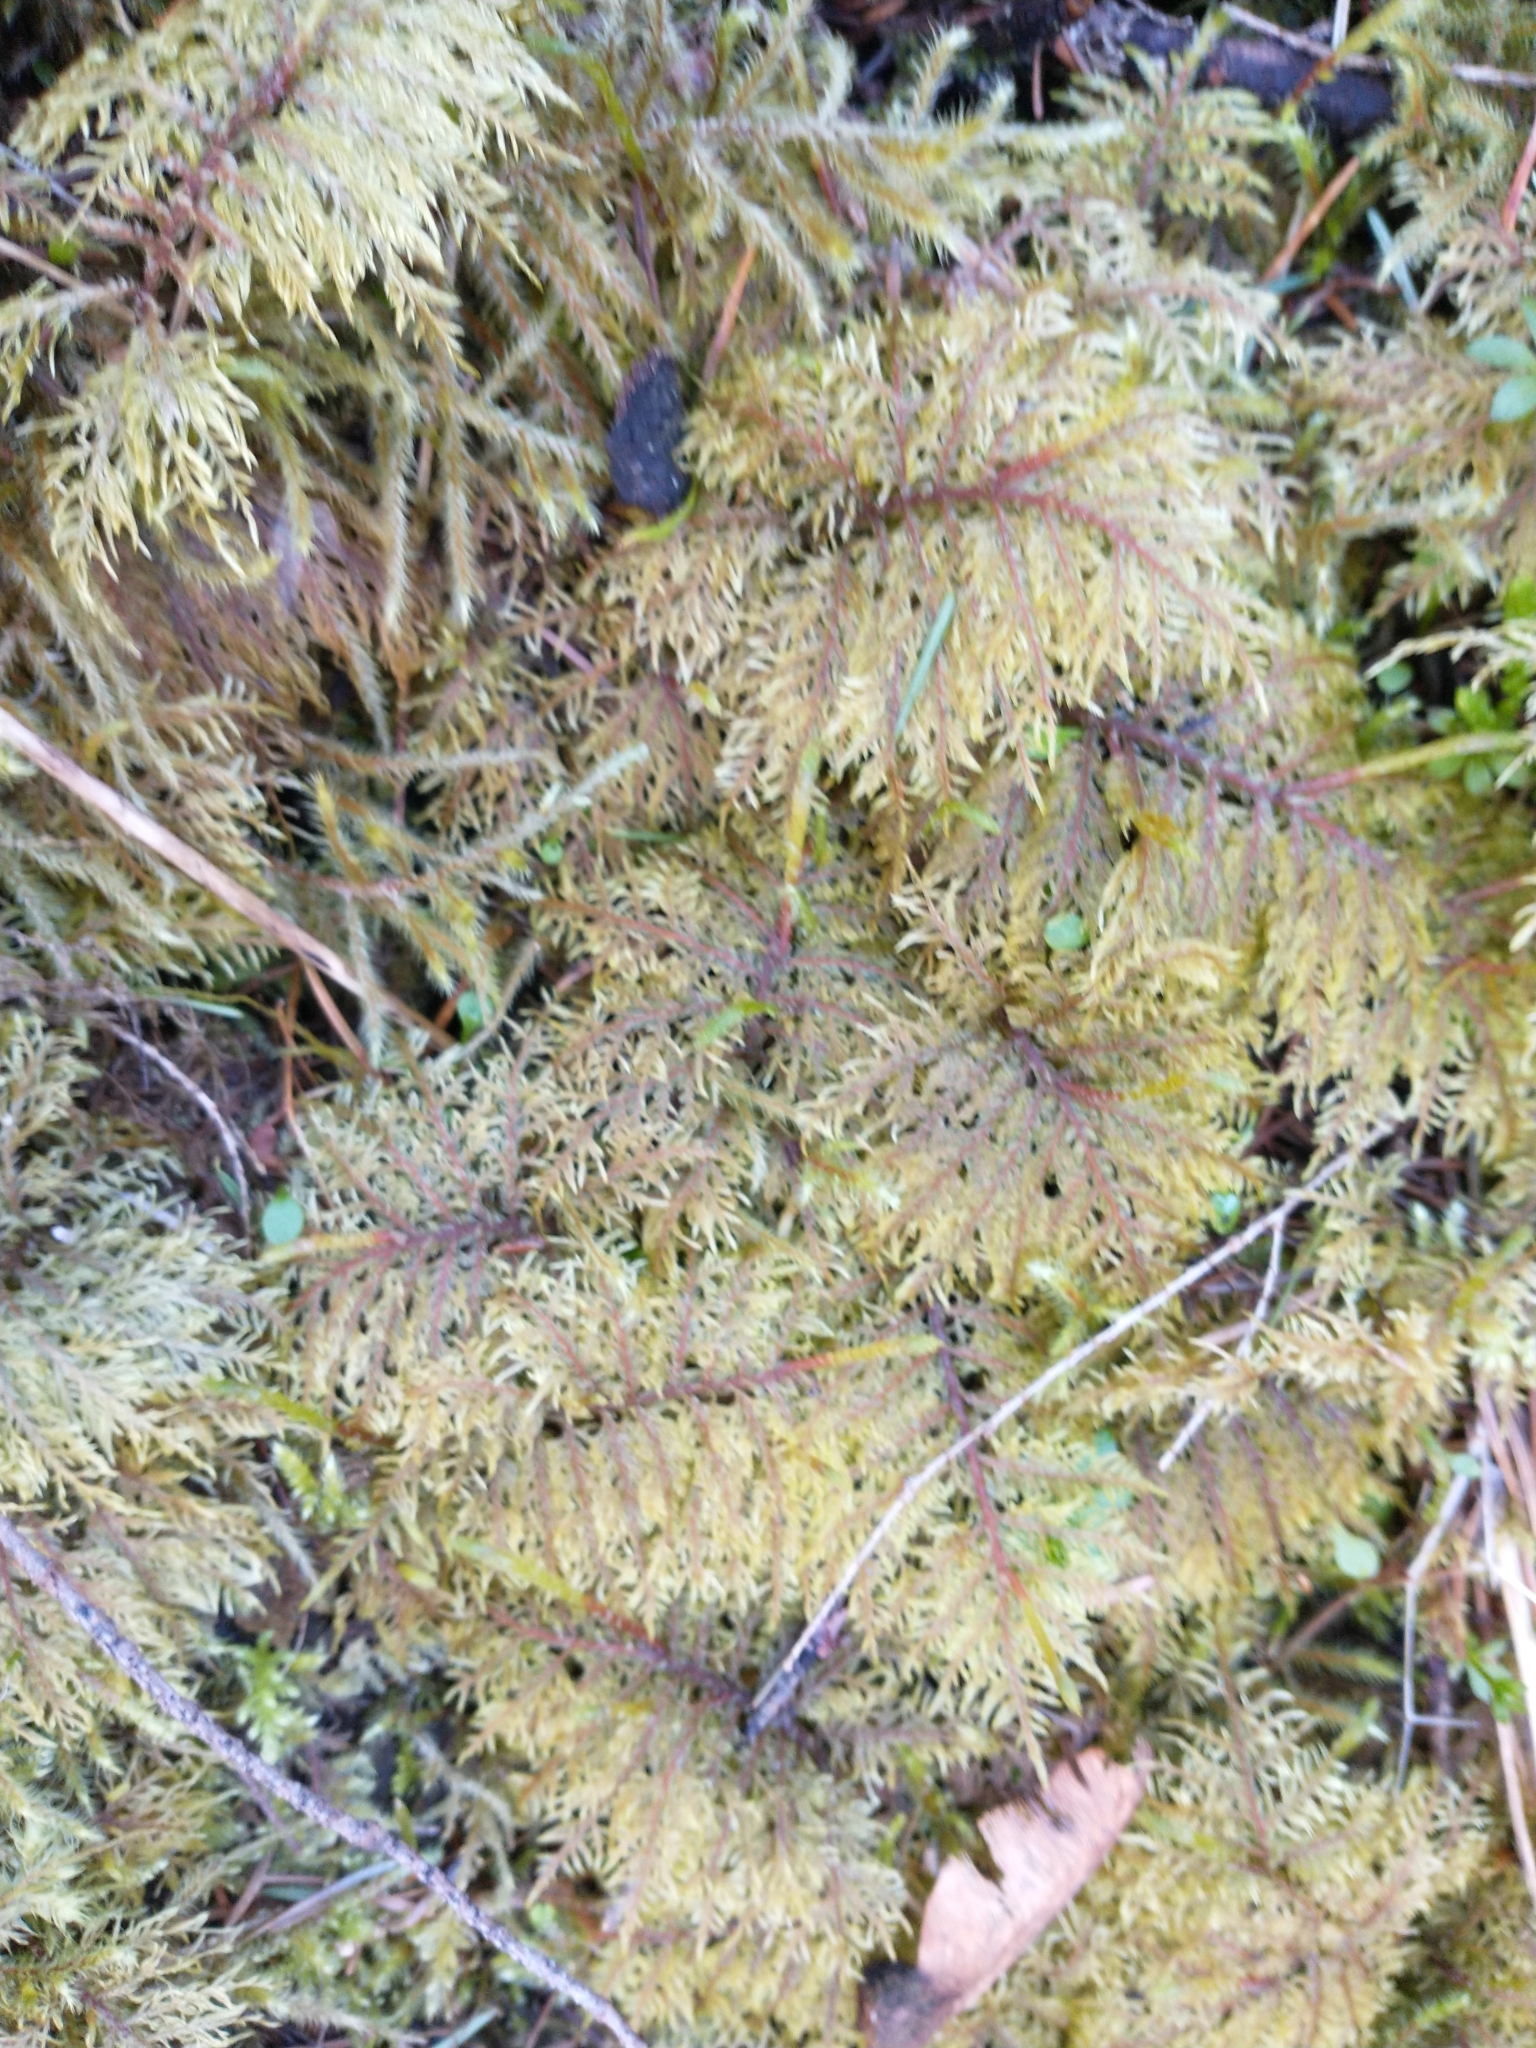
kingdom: Plantae
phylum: Bryophyta
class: Bryopsida
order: Hypnales
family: Hylocomiaceae
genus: Hylocomium
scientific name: Hylocomium splendens
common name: Stairstep moss
